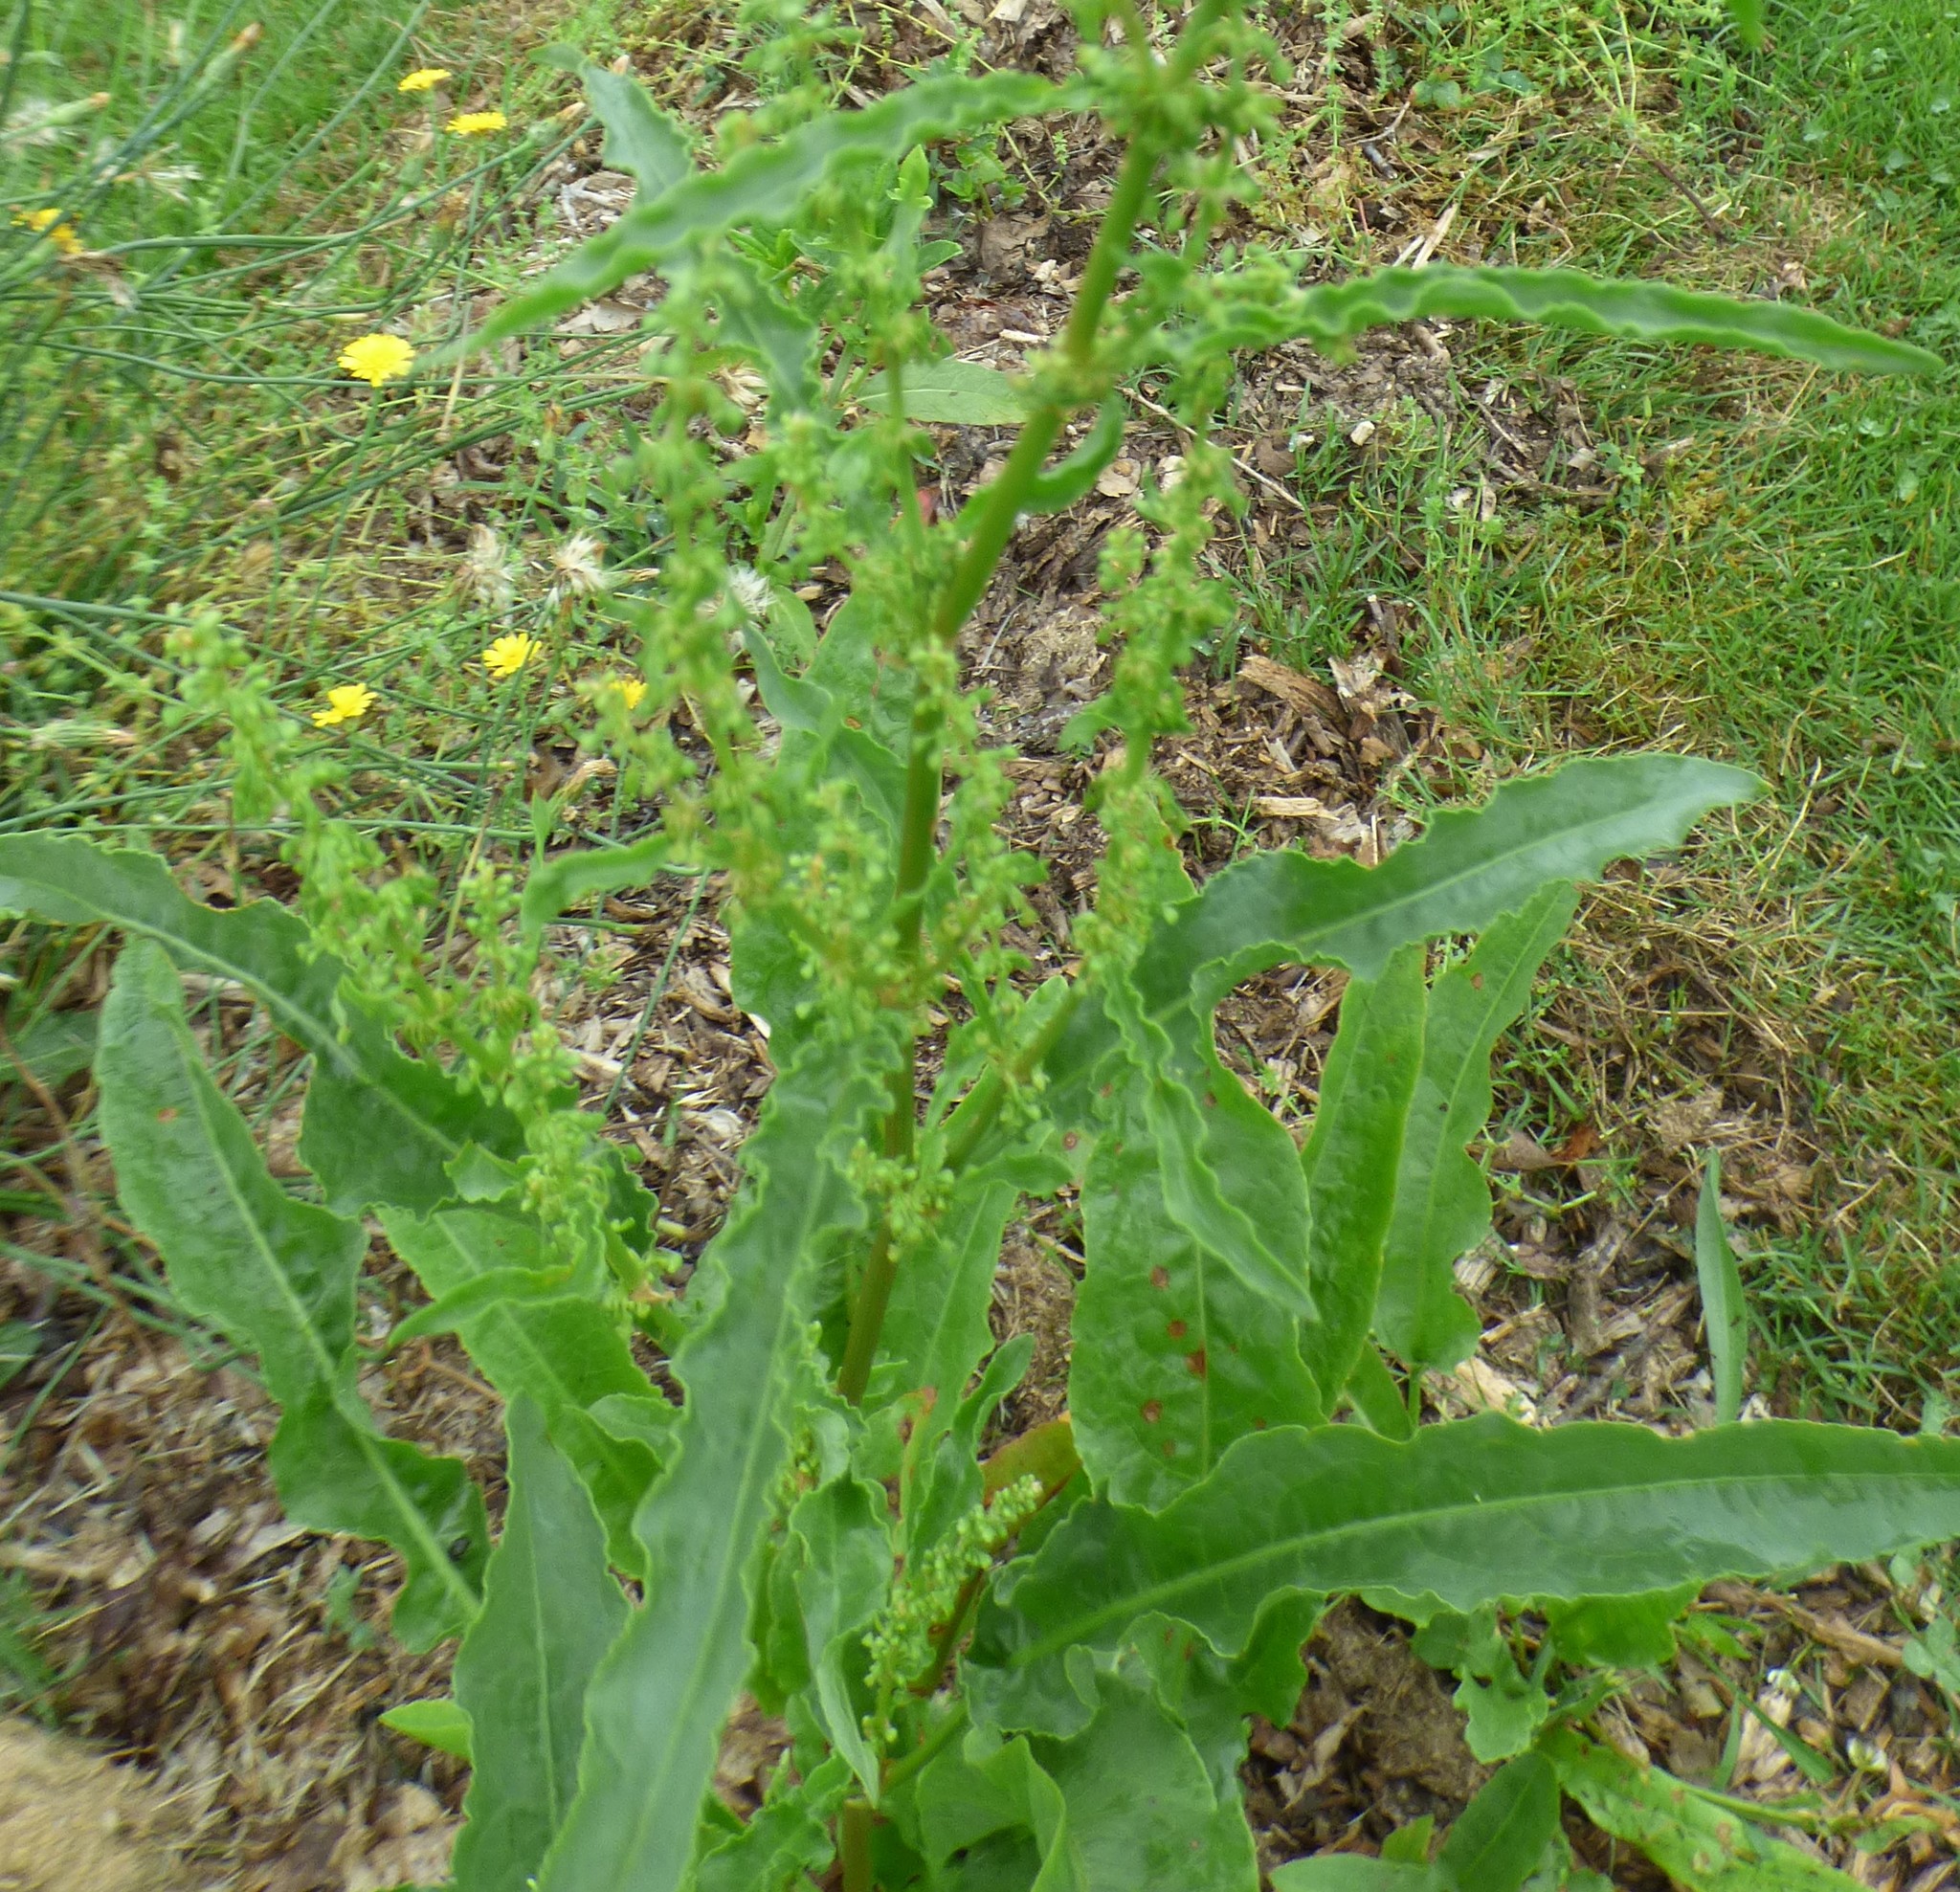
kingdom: Plantae
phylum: Tracheophyta
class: Magnoliopsida
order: Caryophyllales
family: Polygonaceae
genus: Rumex
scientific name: Rumex crispus
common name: Curled dock
